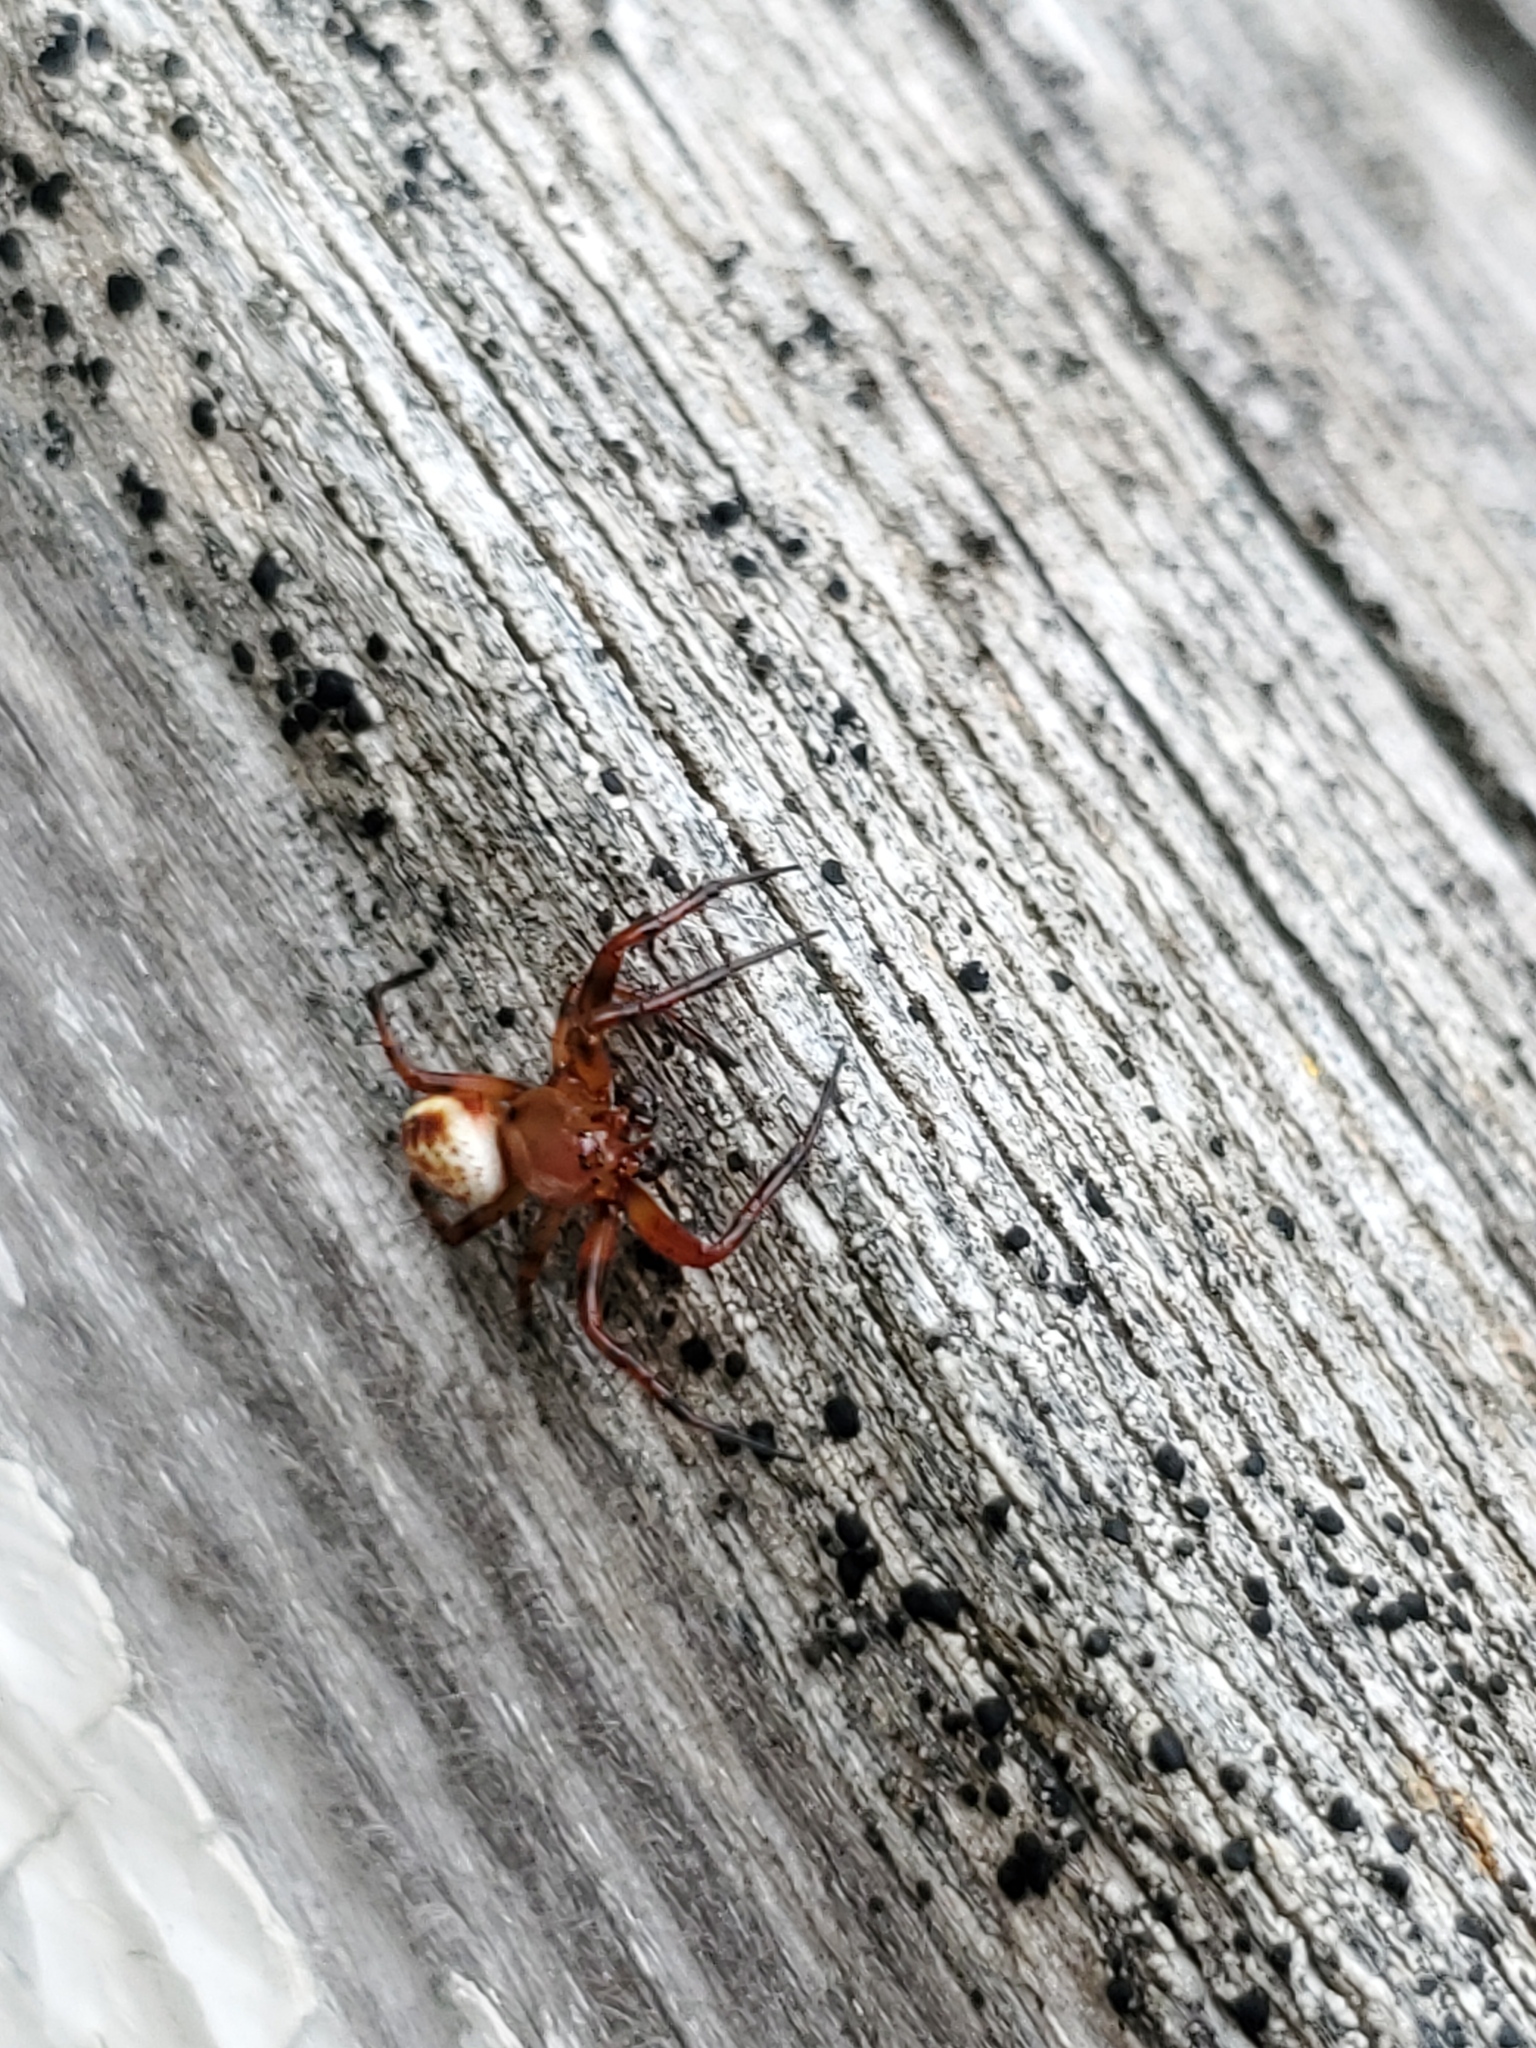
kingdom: Animalia
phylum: Arthropoda
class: Arachnida
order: Araneae
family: Araneidae
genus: Araniella
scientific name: Araniella displicata
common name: Sixspotted orb weaver
